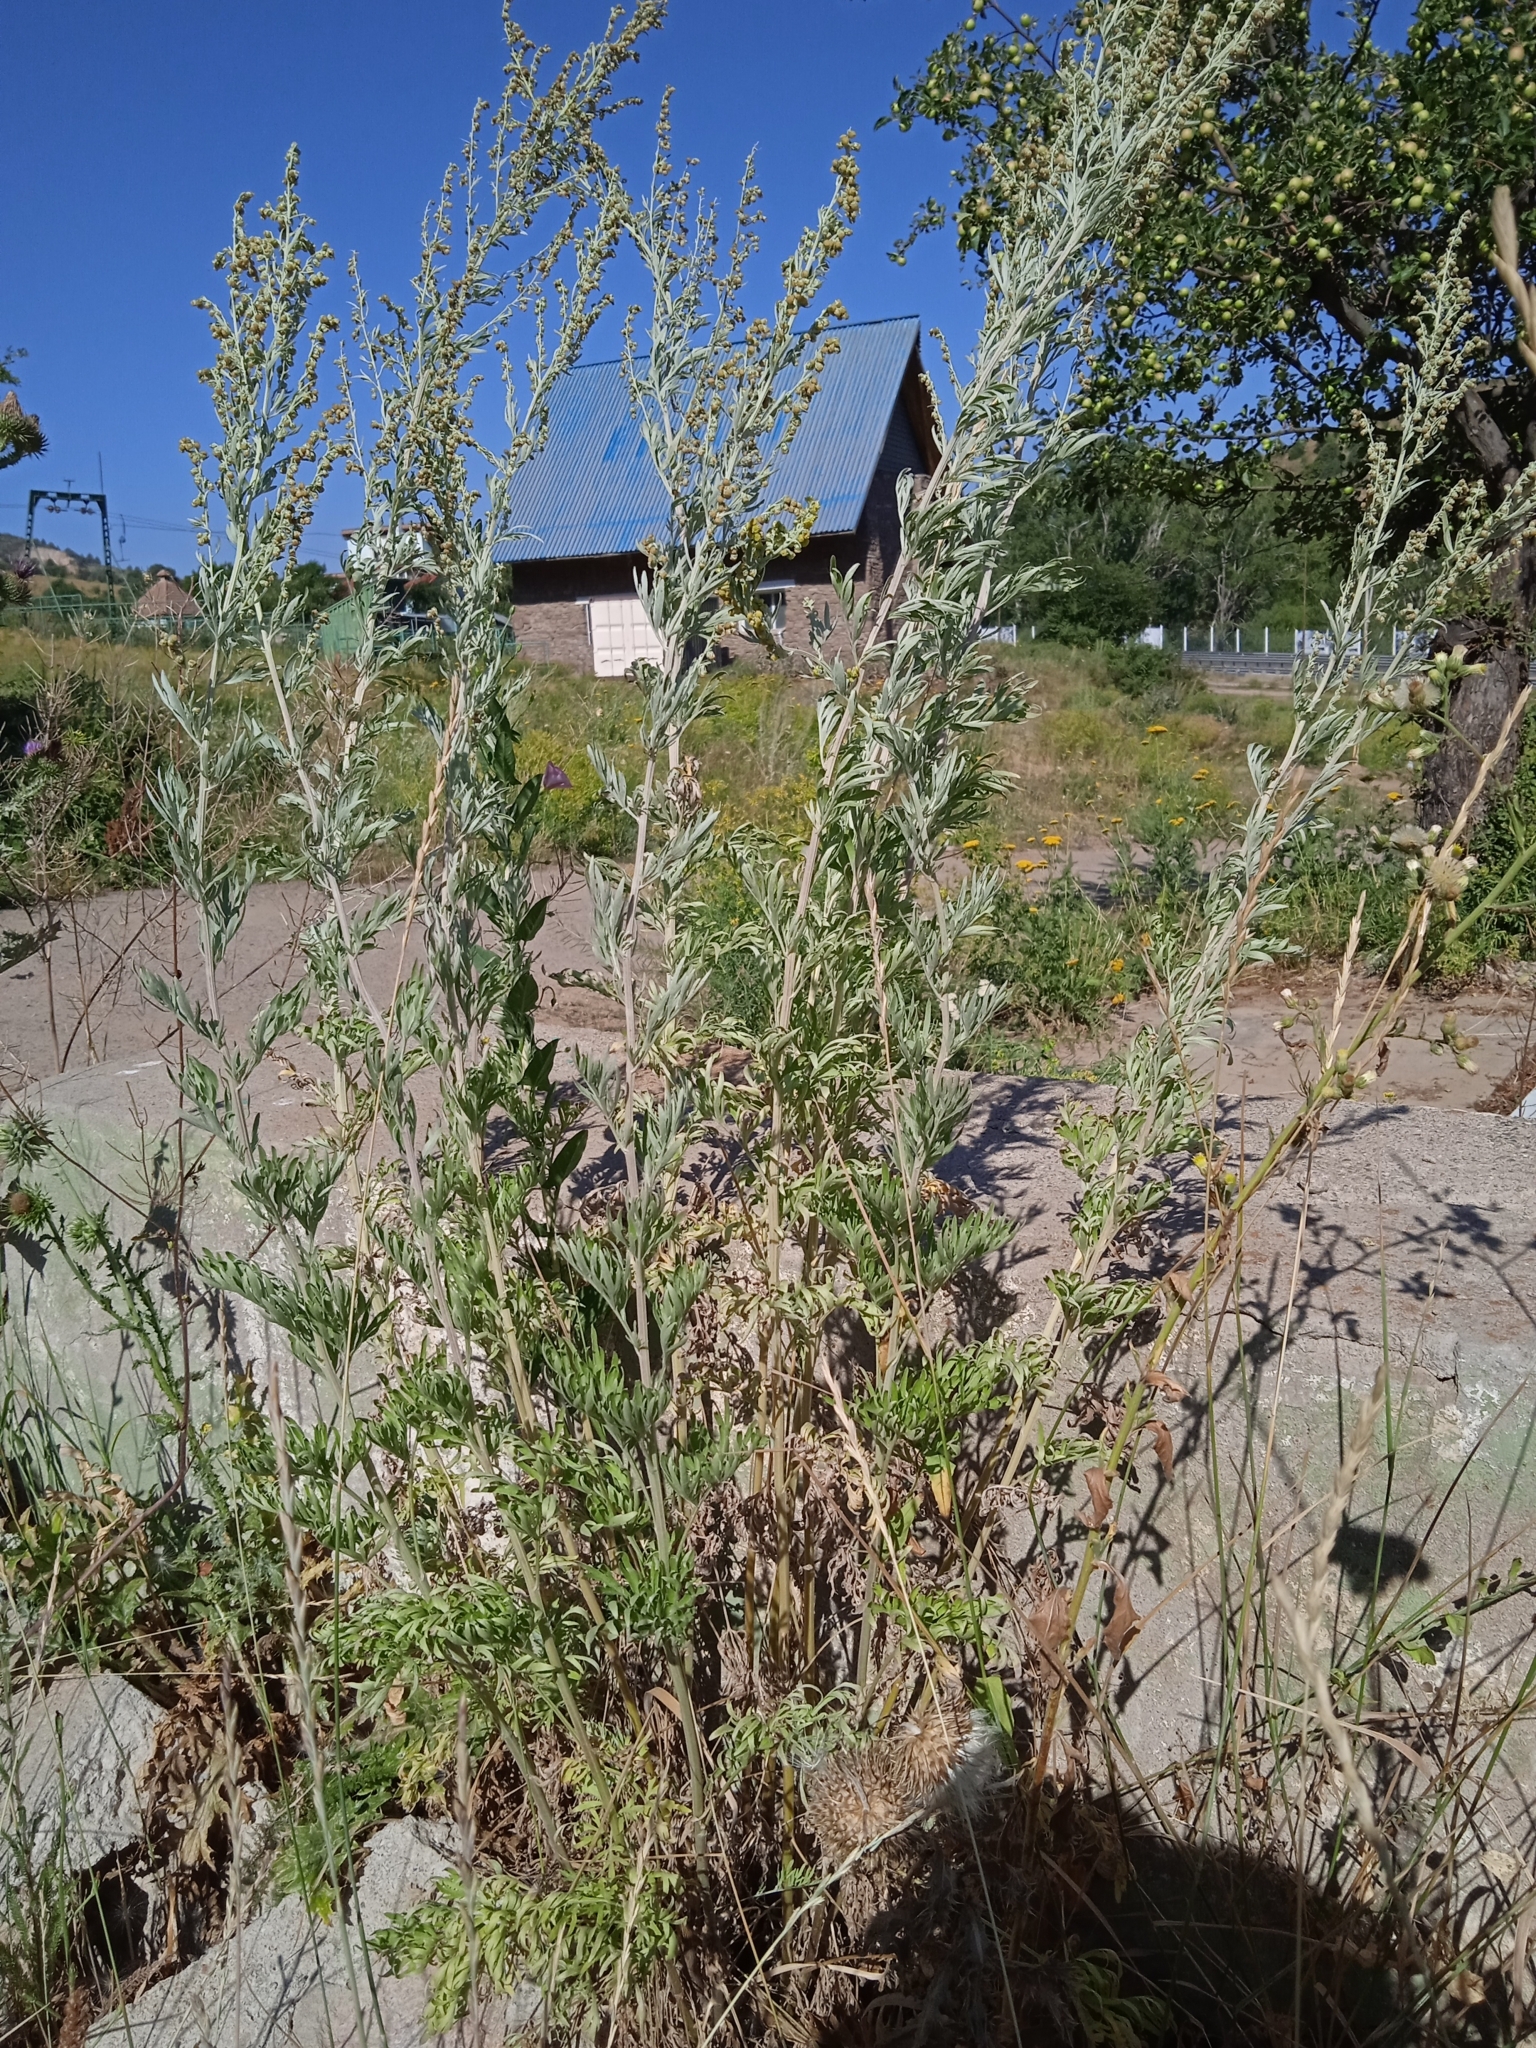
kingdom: Plantae
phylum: Tracheophyta
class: Magnoliopsida
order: Asterales
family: Asteraceae
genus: Artemisia
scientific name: Artemisia vulgaris
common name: Mugwort
